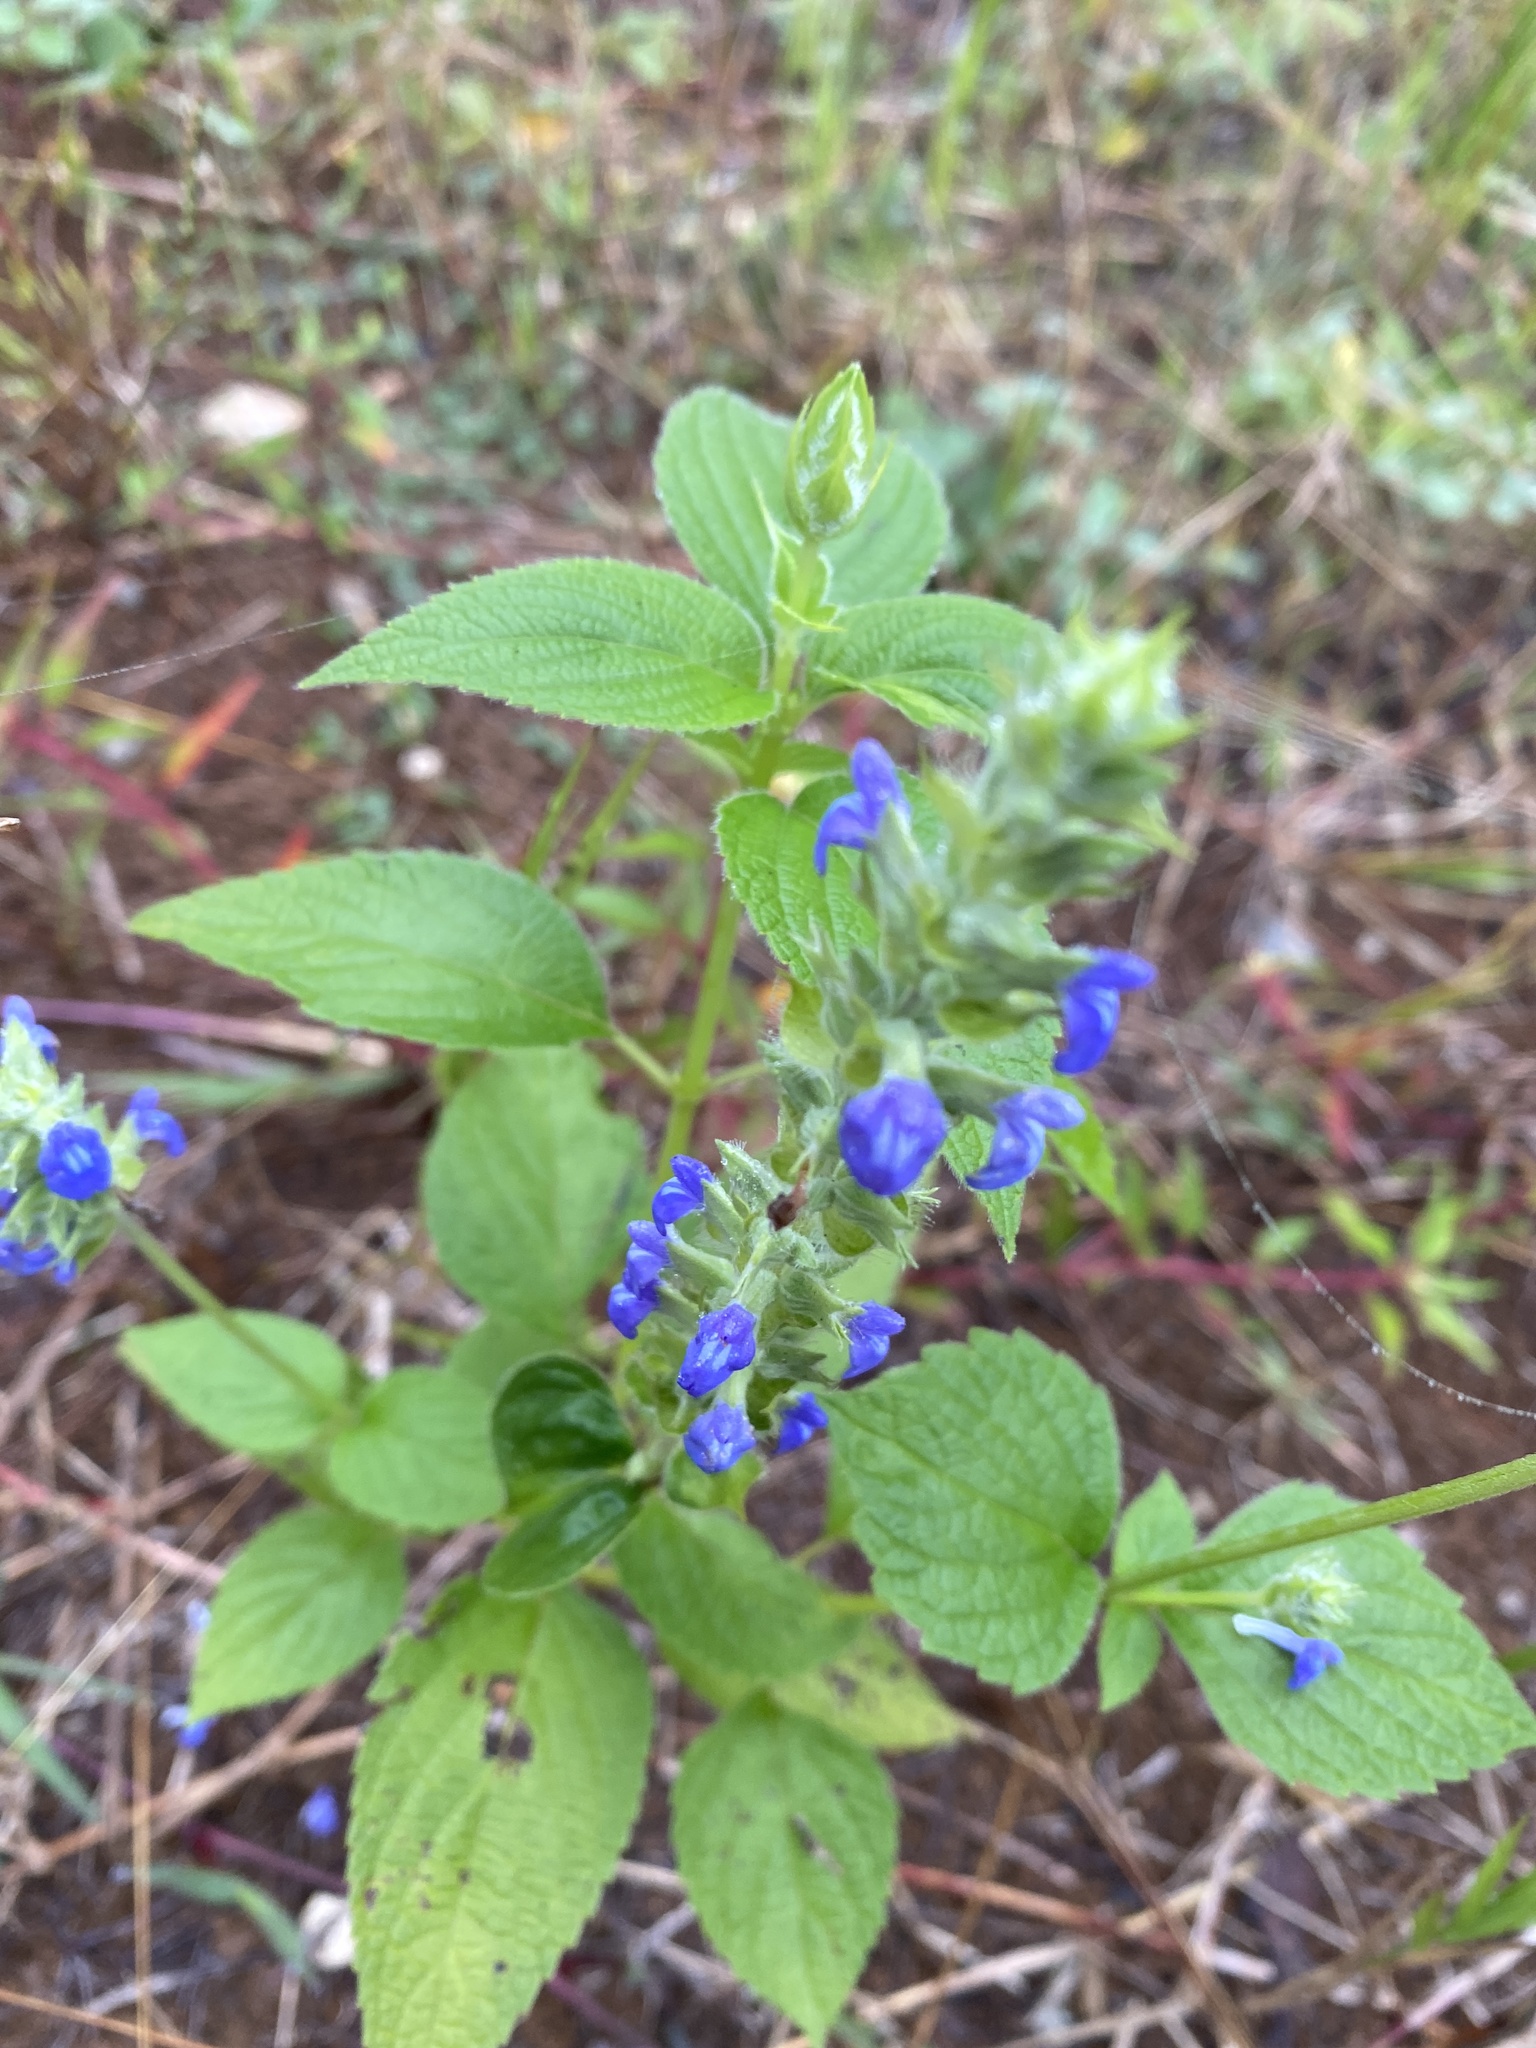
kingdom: Plantae
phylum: Tracheophyta
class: Magnoliopsida
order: Lamiales
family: Lamiaceae
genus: Salvia
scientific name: Salvia hispanica
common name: Chia
